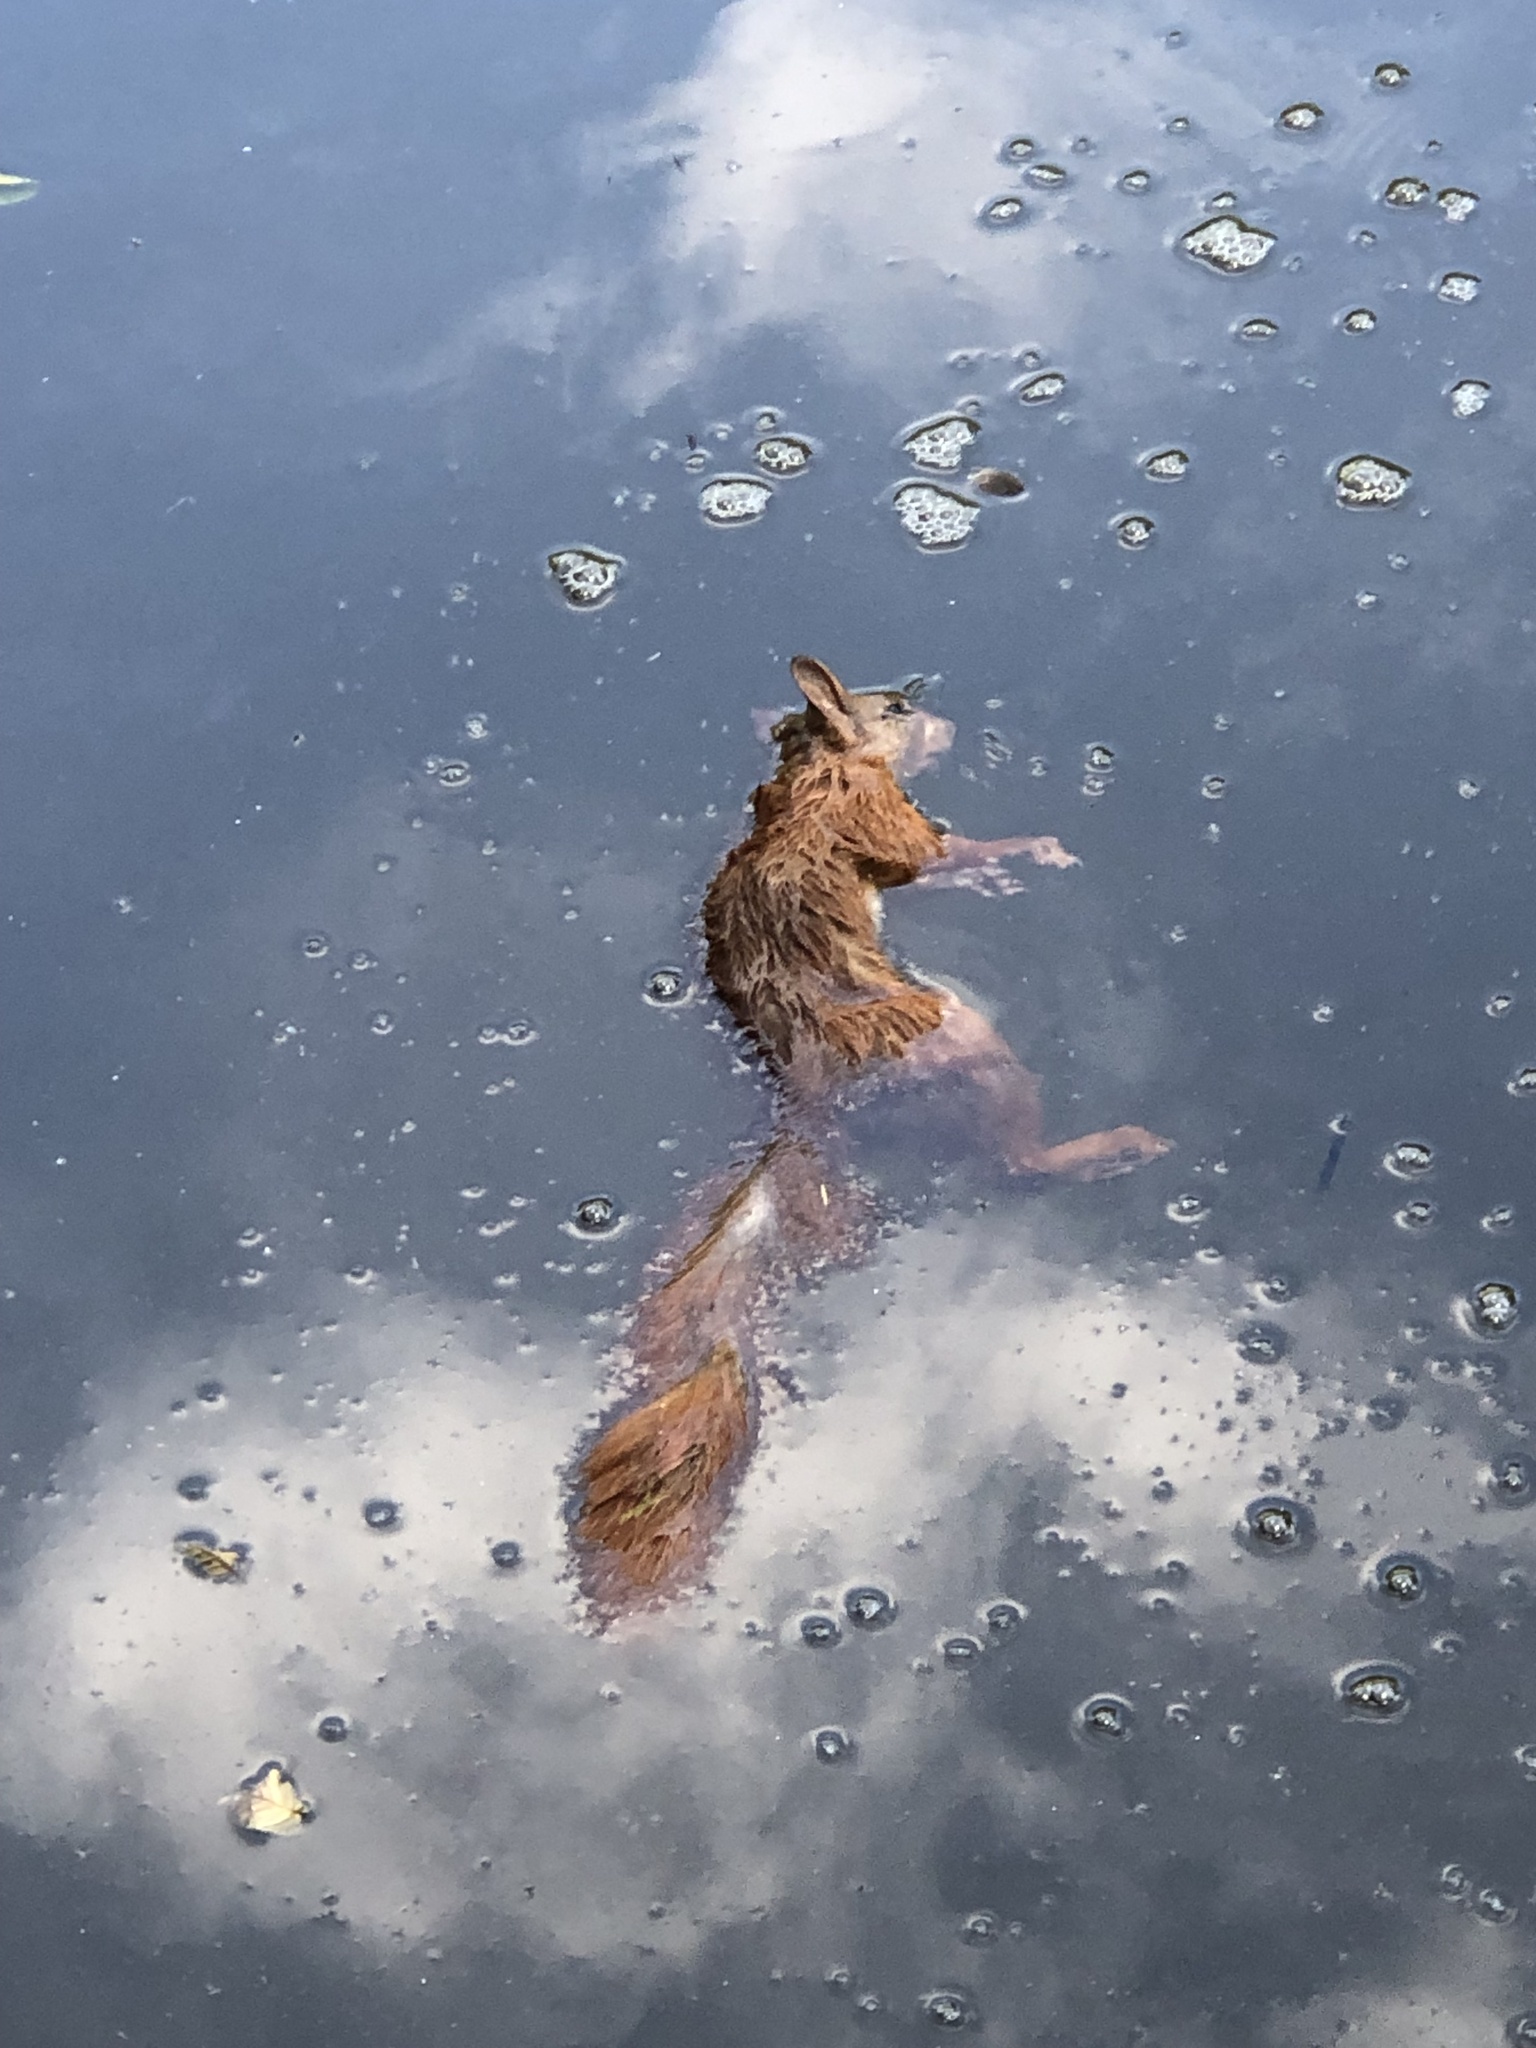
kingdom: Animalia
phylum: Chordata
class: Mammalia
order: Rodentia
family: Sciuridae
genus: Sciurus
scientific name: Sciurus vulgaris
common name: Eurasian red squirrel
